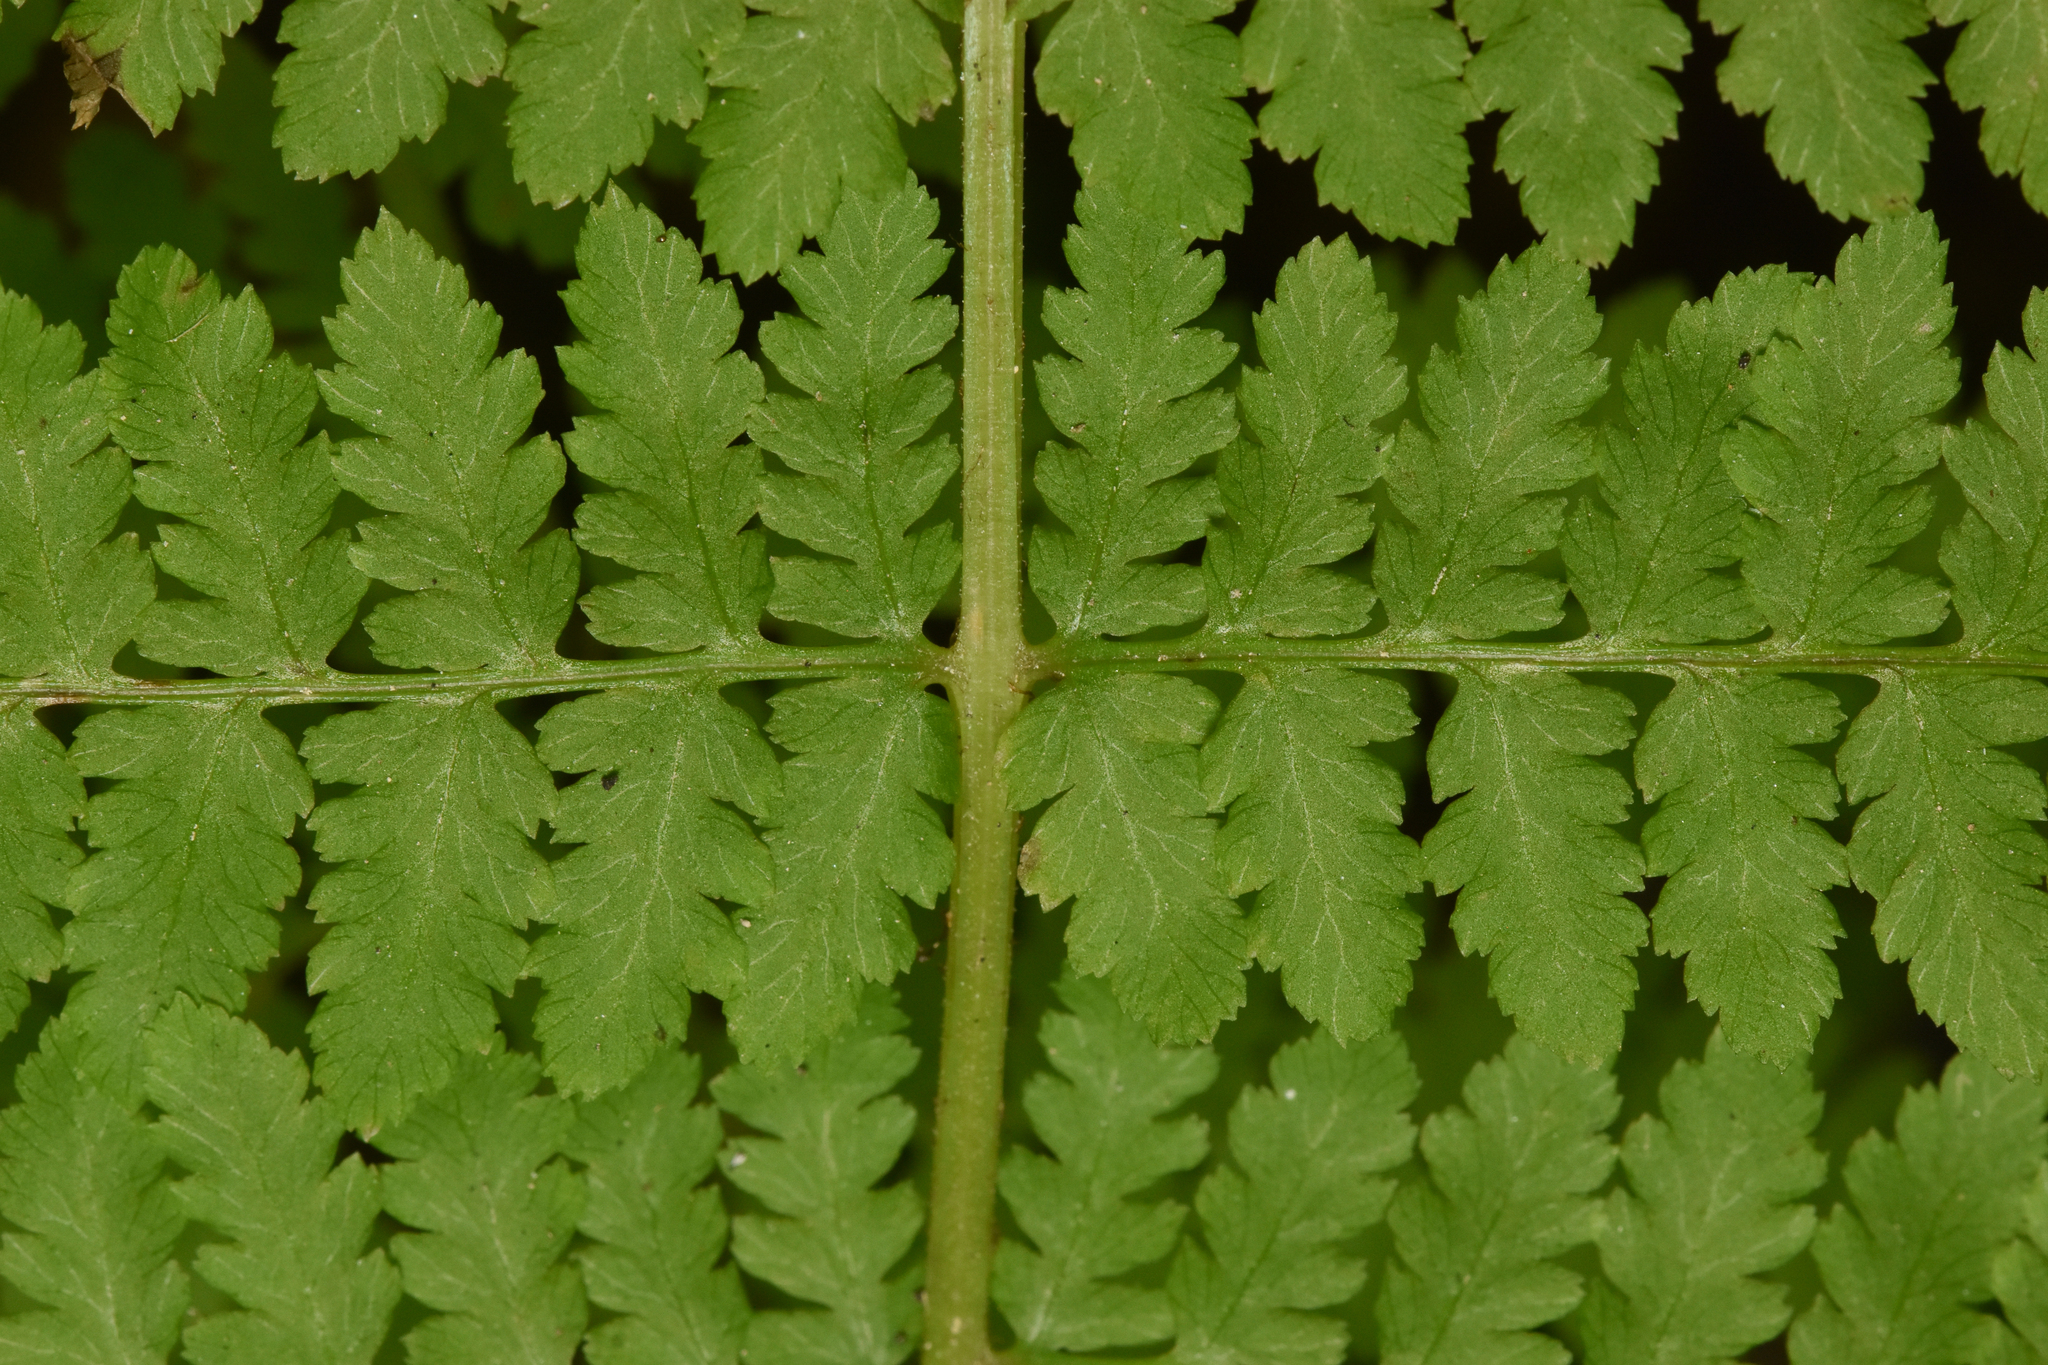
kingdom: Plantae
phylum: Tracheophyta
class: Polypodiopsida
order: Polypodiales
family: Athyriaceae
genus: Athyrium
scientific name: Athyrium filix-femina
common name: Lady fern
